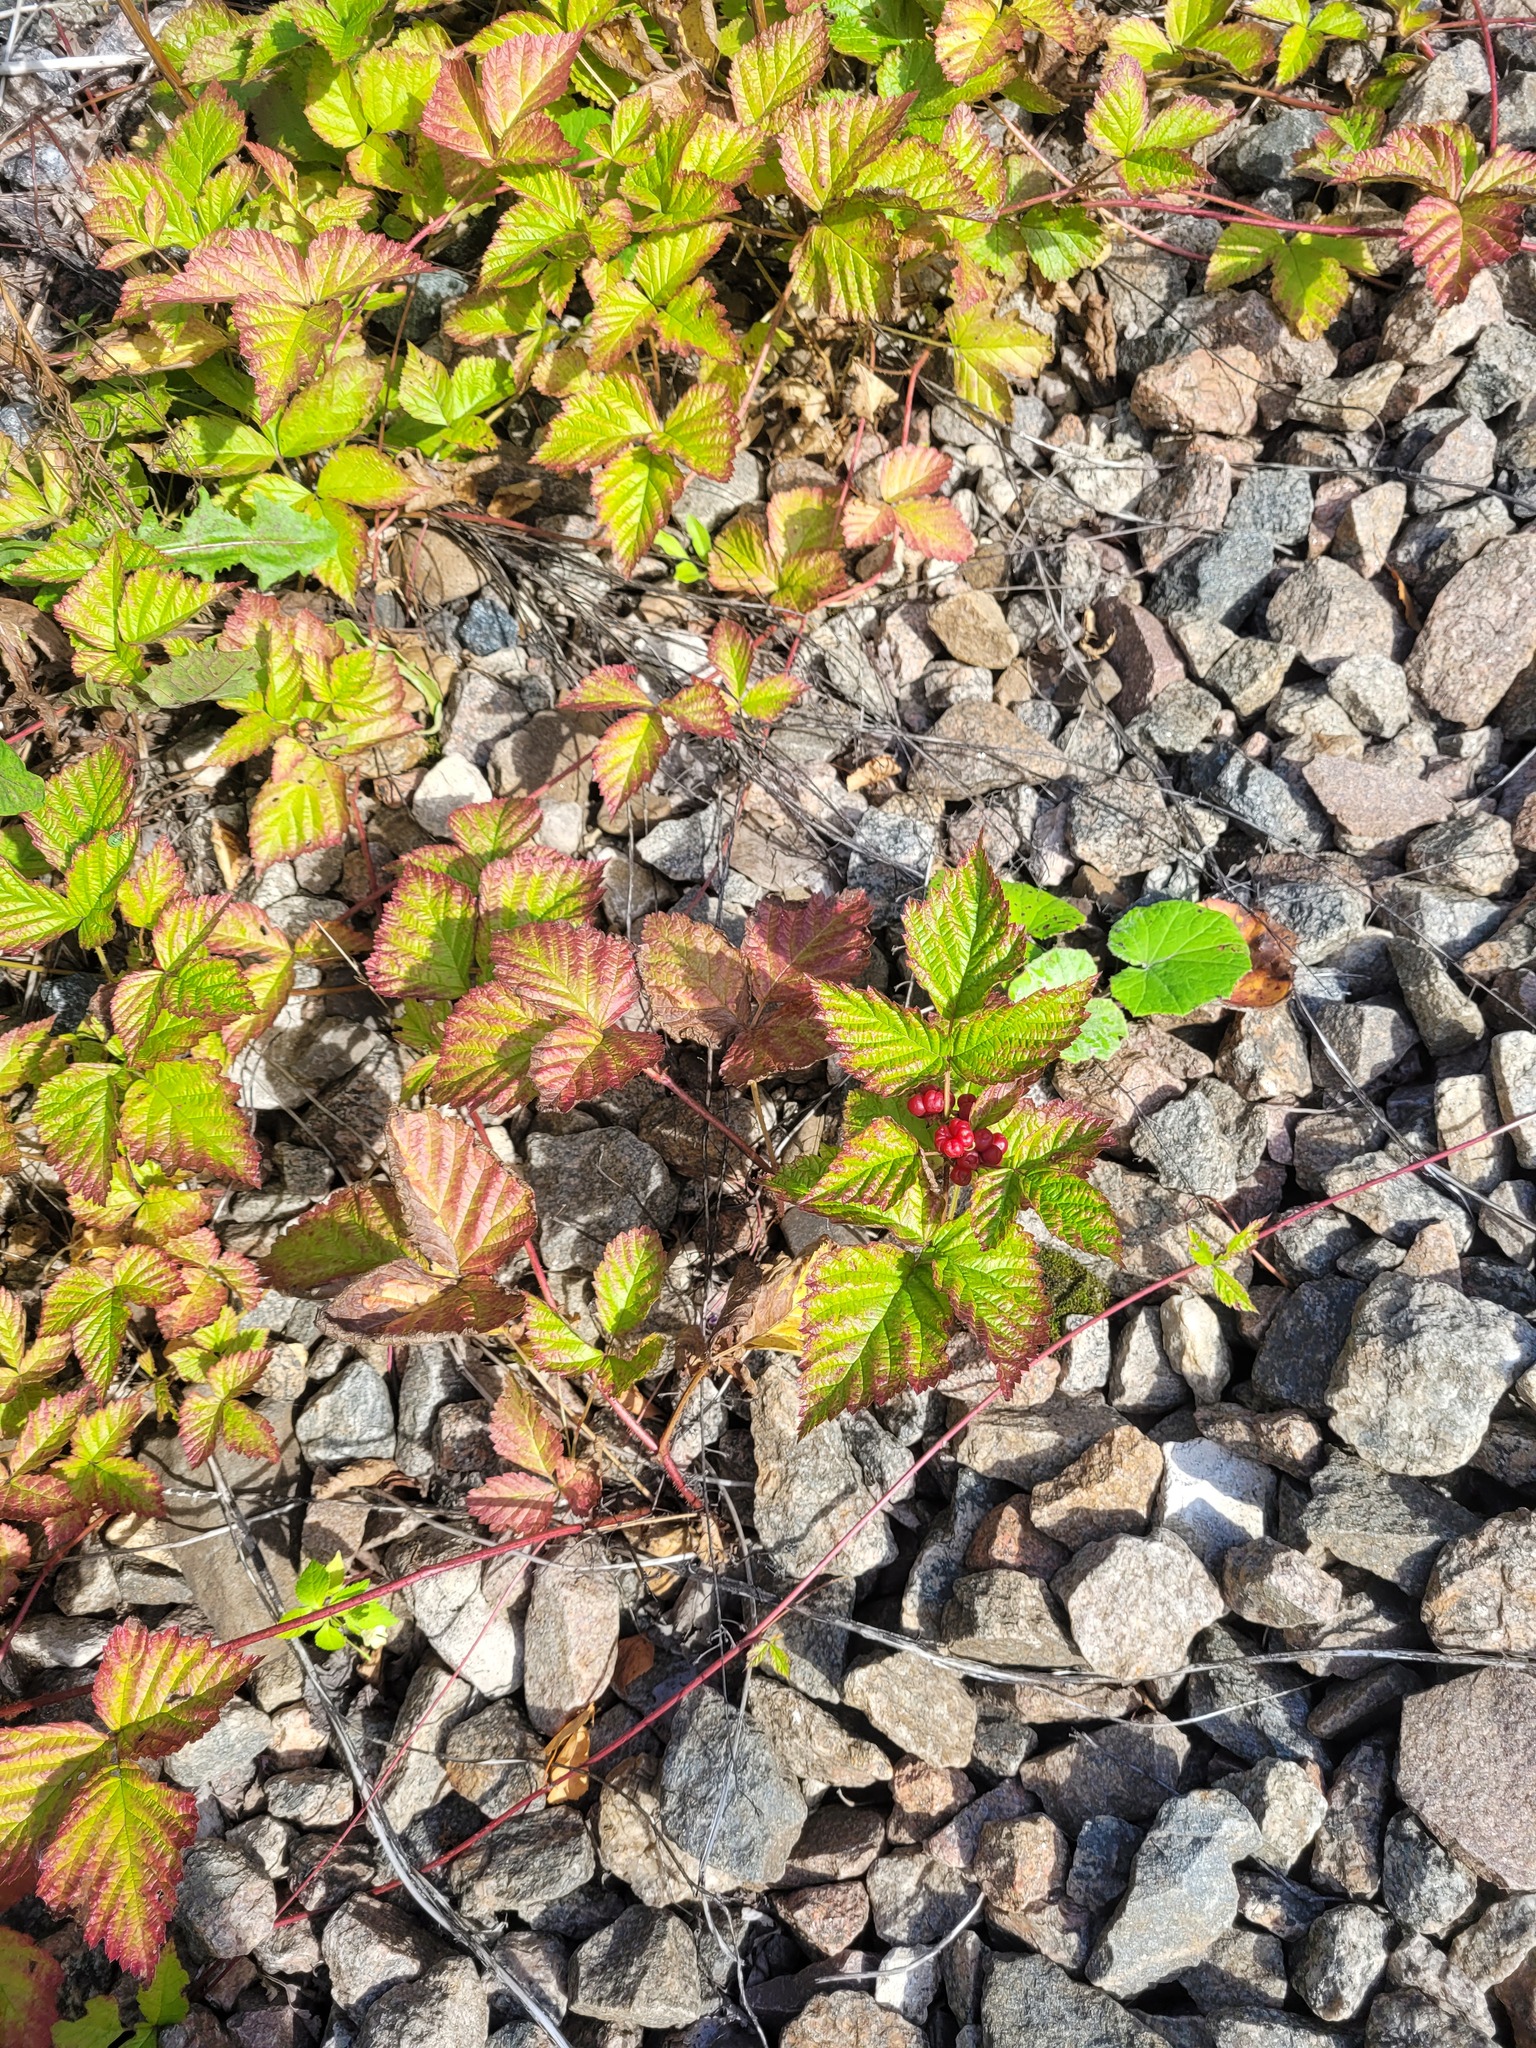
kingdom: Plantae
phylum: Tracheophyta
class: Magnoliopsida
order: Rosales
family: Rosaceae
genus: Rubus
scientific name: Rubus saxatilis
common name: Stone bramble
